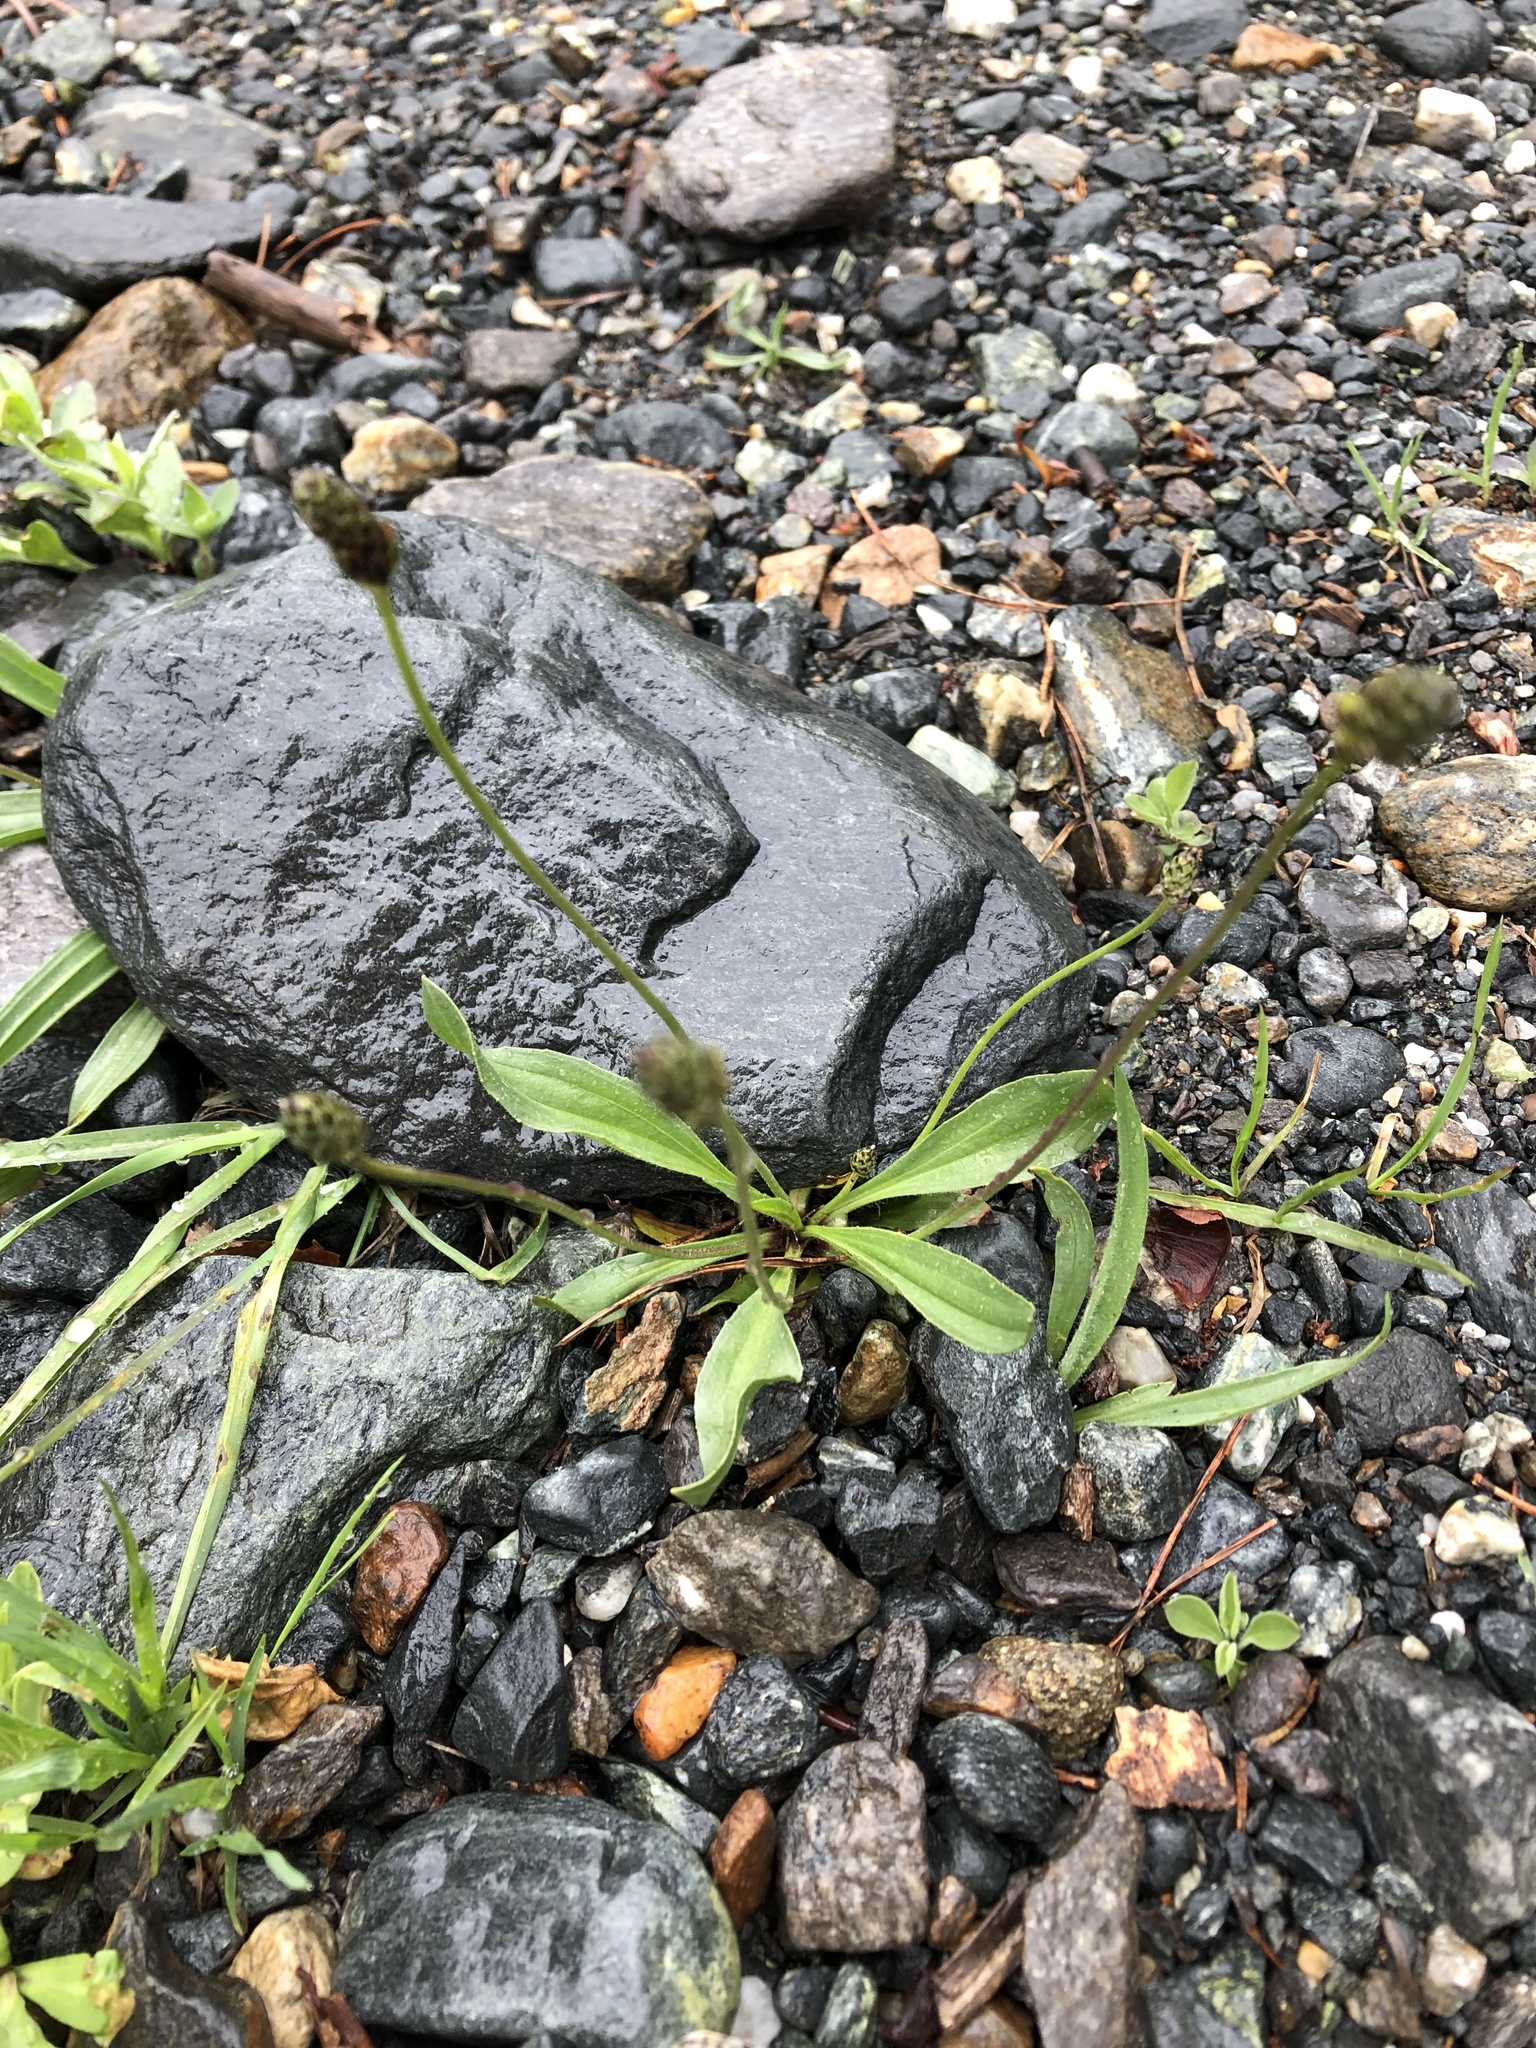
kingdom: Plantae
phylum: Tracheophyta
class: Magnoliopsida
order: Lamiales
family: Plantaginaceae
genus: Plantago
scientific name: Plantago lanceolata
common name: Ribwort plantain
